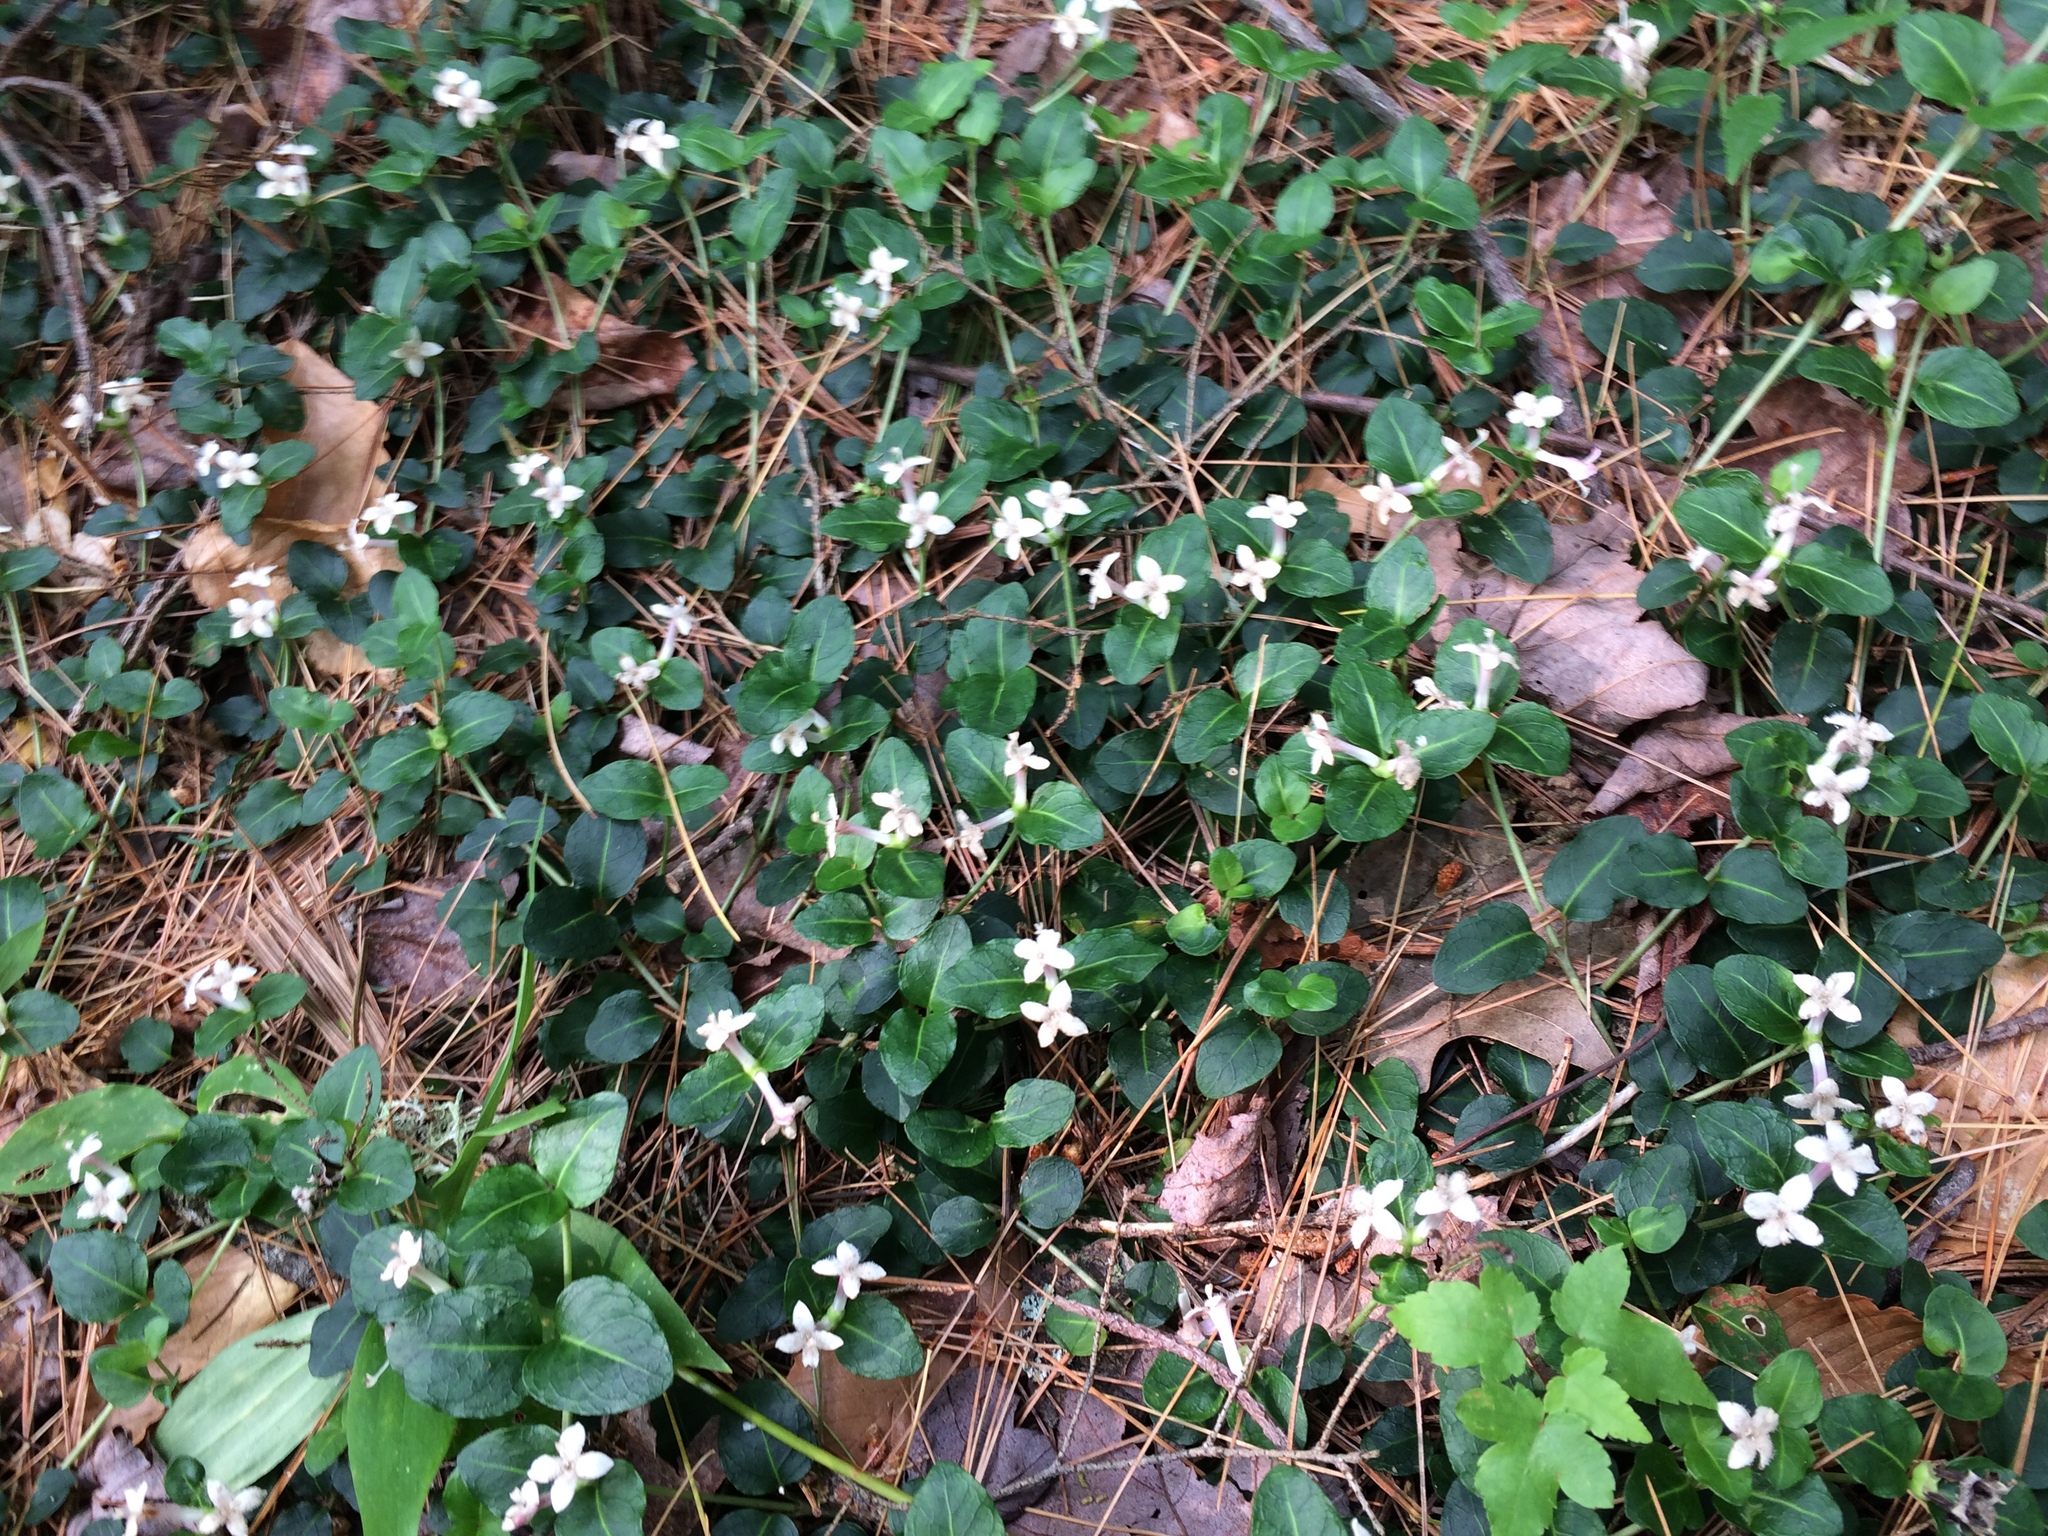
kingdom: Plantae
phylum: Tracheophyta
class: Magnoliopsida
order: Gentianales
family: Rubiaceae
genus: Mitchella
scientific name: Mitchella repens
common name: Partridge-berry
